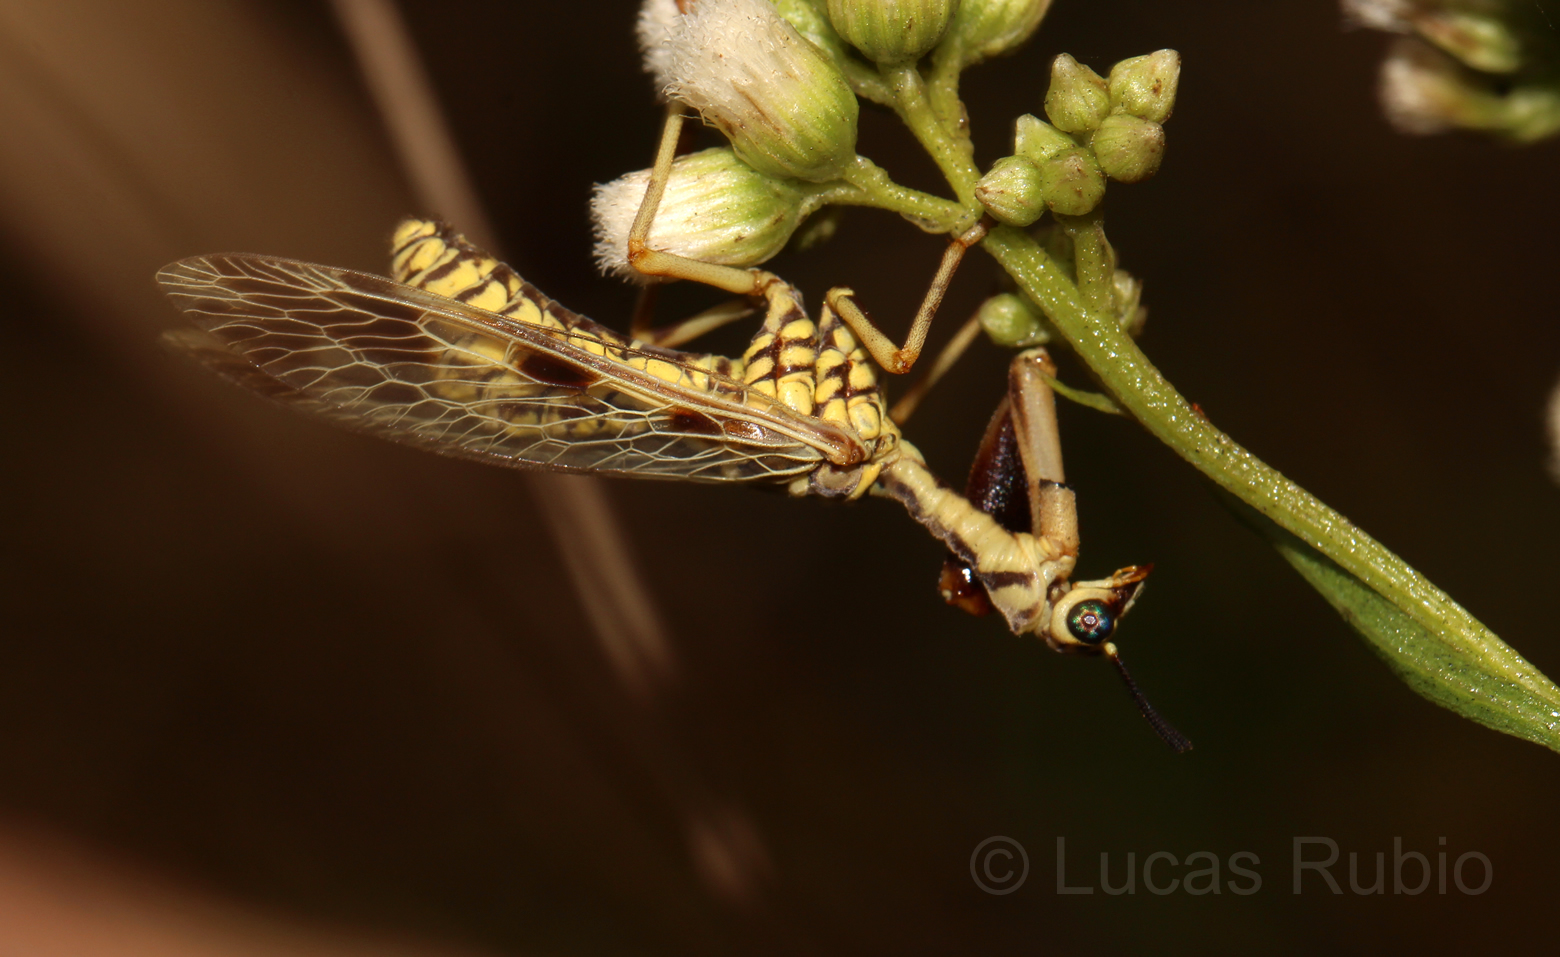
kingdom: Animalia
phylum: Arthropoda
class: Insecta
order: Neuroptera
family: Mantispidae
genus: Paramantispa
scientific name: Paramantispa ambusta
